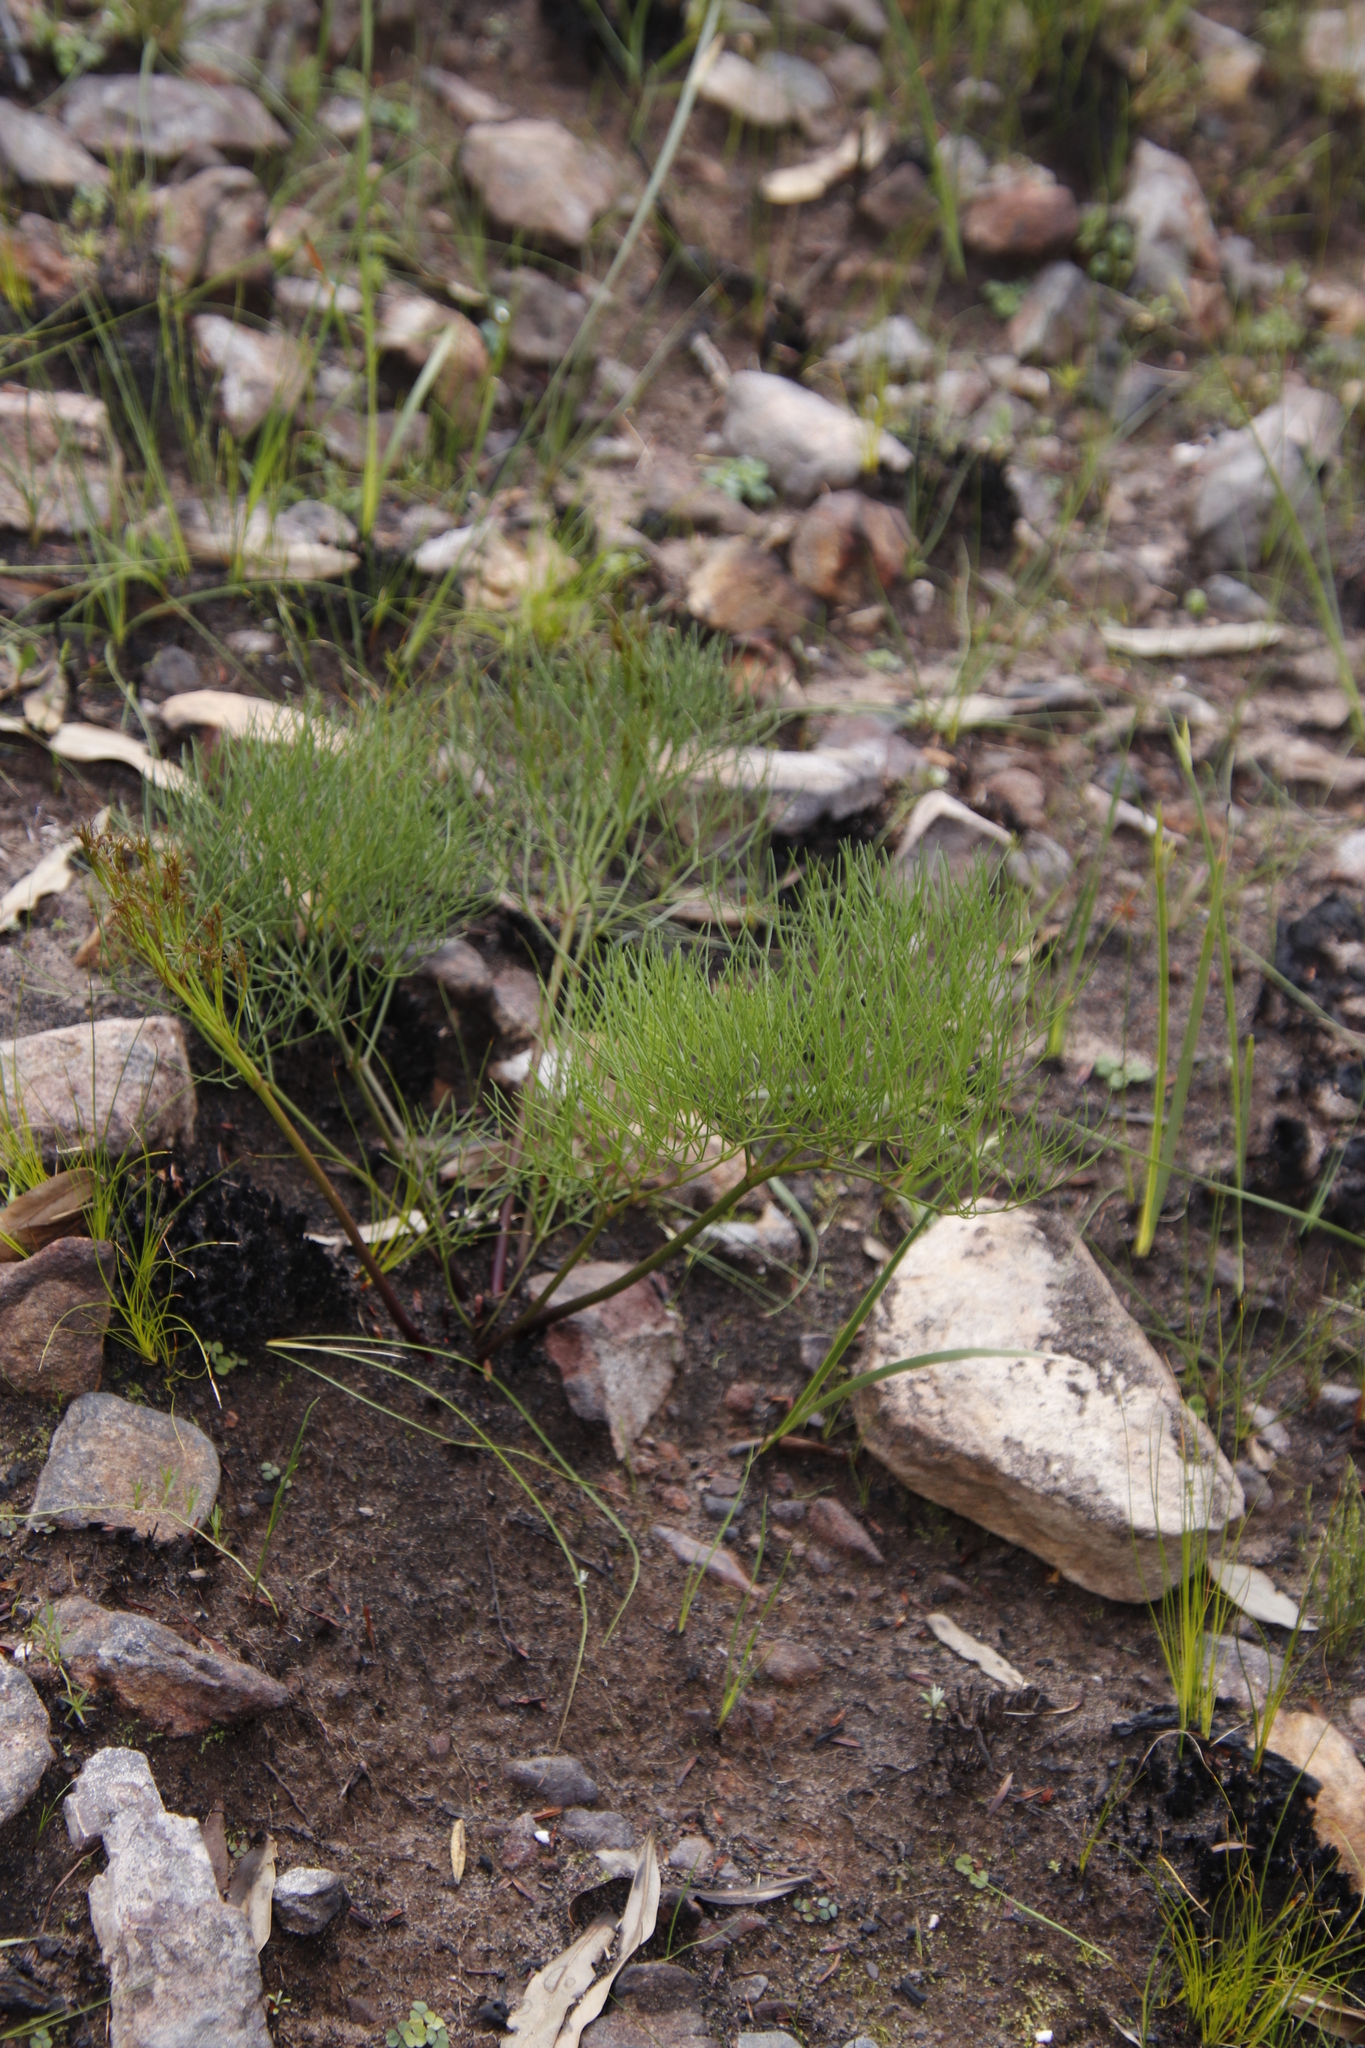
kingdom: Plantae
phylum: Tracheophyta
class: Magnoliopsida
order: Apiales
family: Apiaceae
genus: Nanobubon
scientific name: Nanobubon strictum
